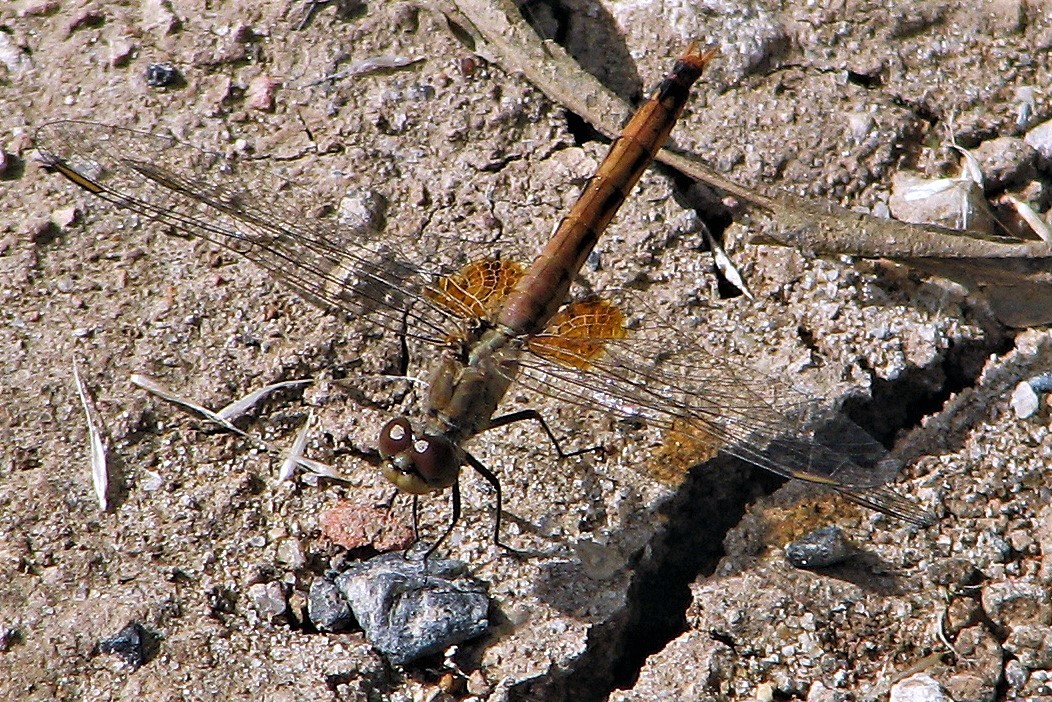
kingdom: Animalia
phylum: Arthropoda
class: Insecta
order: Odonata
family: Libellulidae
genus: Erythrodiplax
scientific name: Erythrodiplax corallina
